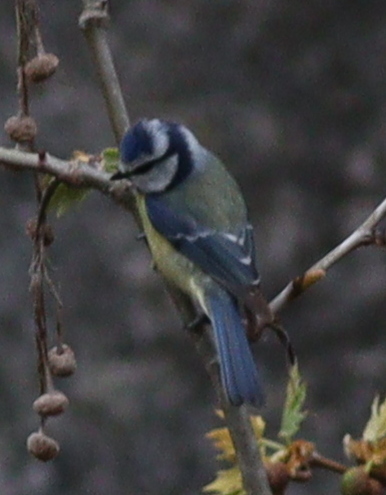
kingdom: Animalia
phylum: Chordata
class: Aves
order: Passeriformes
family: Paridae
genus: Cyanistes
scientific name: Cyanistes caeruleus
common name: Eurasian blue tit
